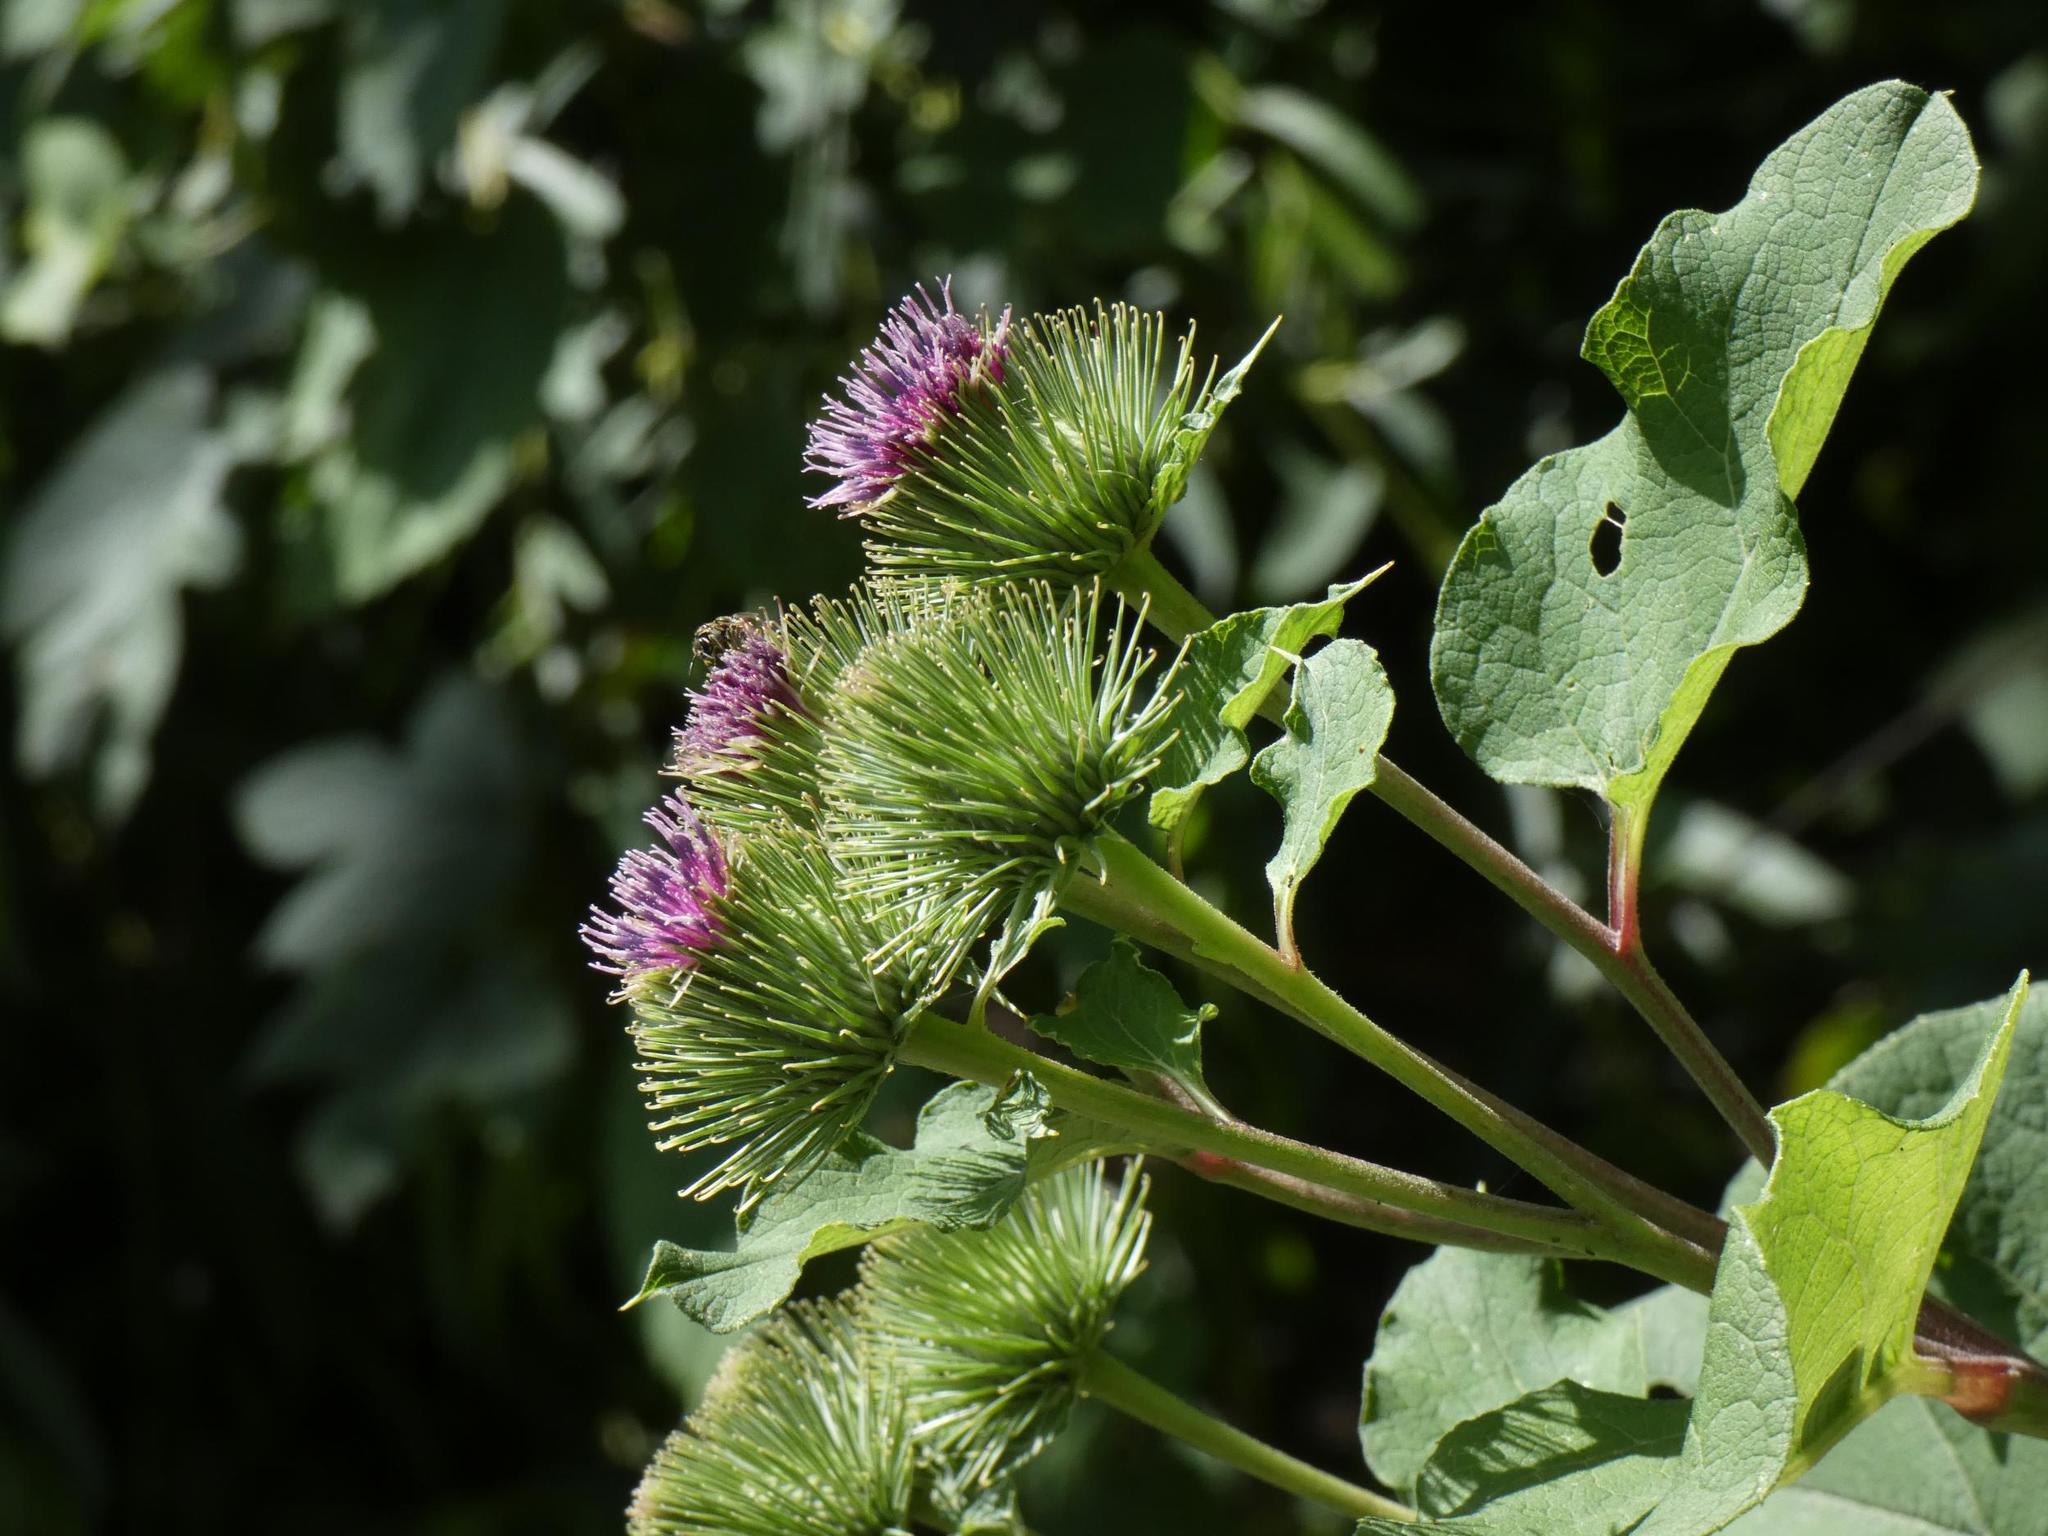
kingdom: Plantae
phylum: Tracheophyta
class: Magnoliopsida
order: Asterales
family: Asteraceae
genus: Arctium
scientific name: Arctium lappa
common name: Greater burdock
